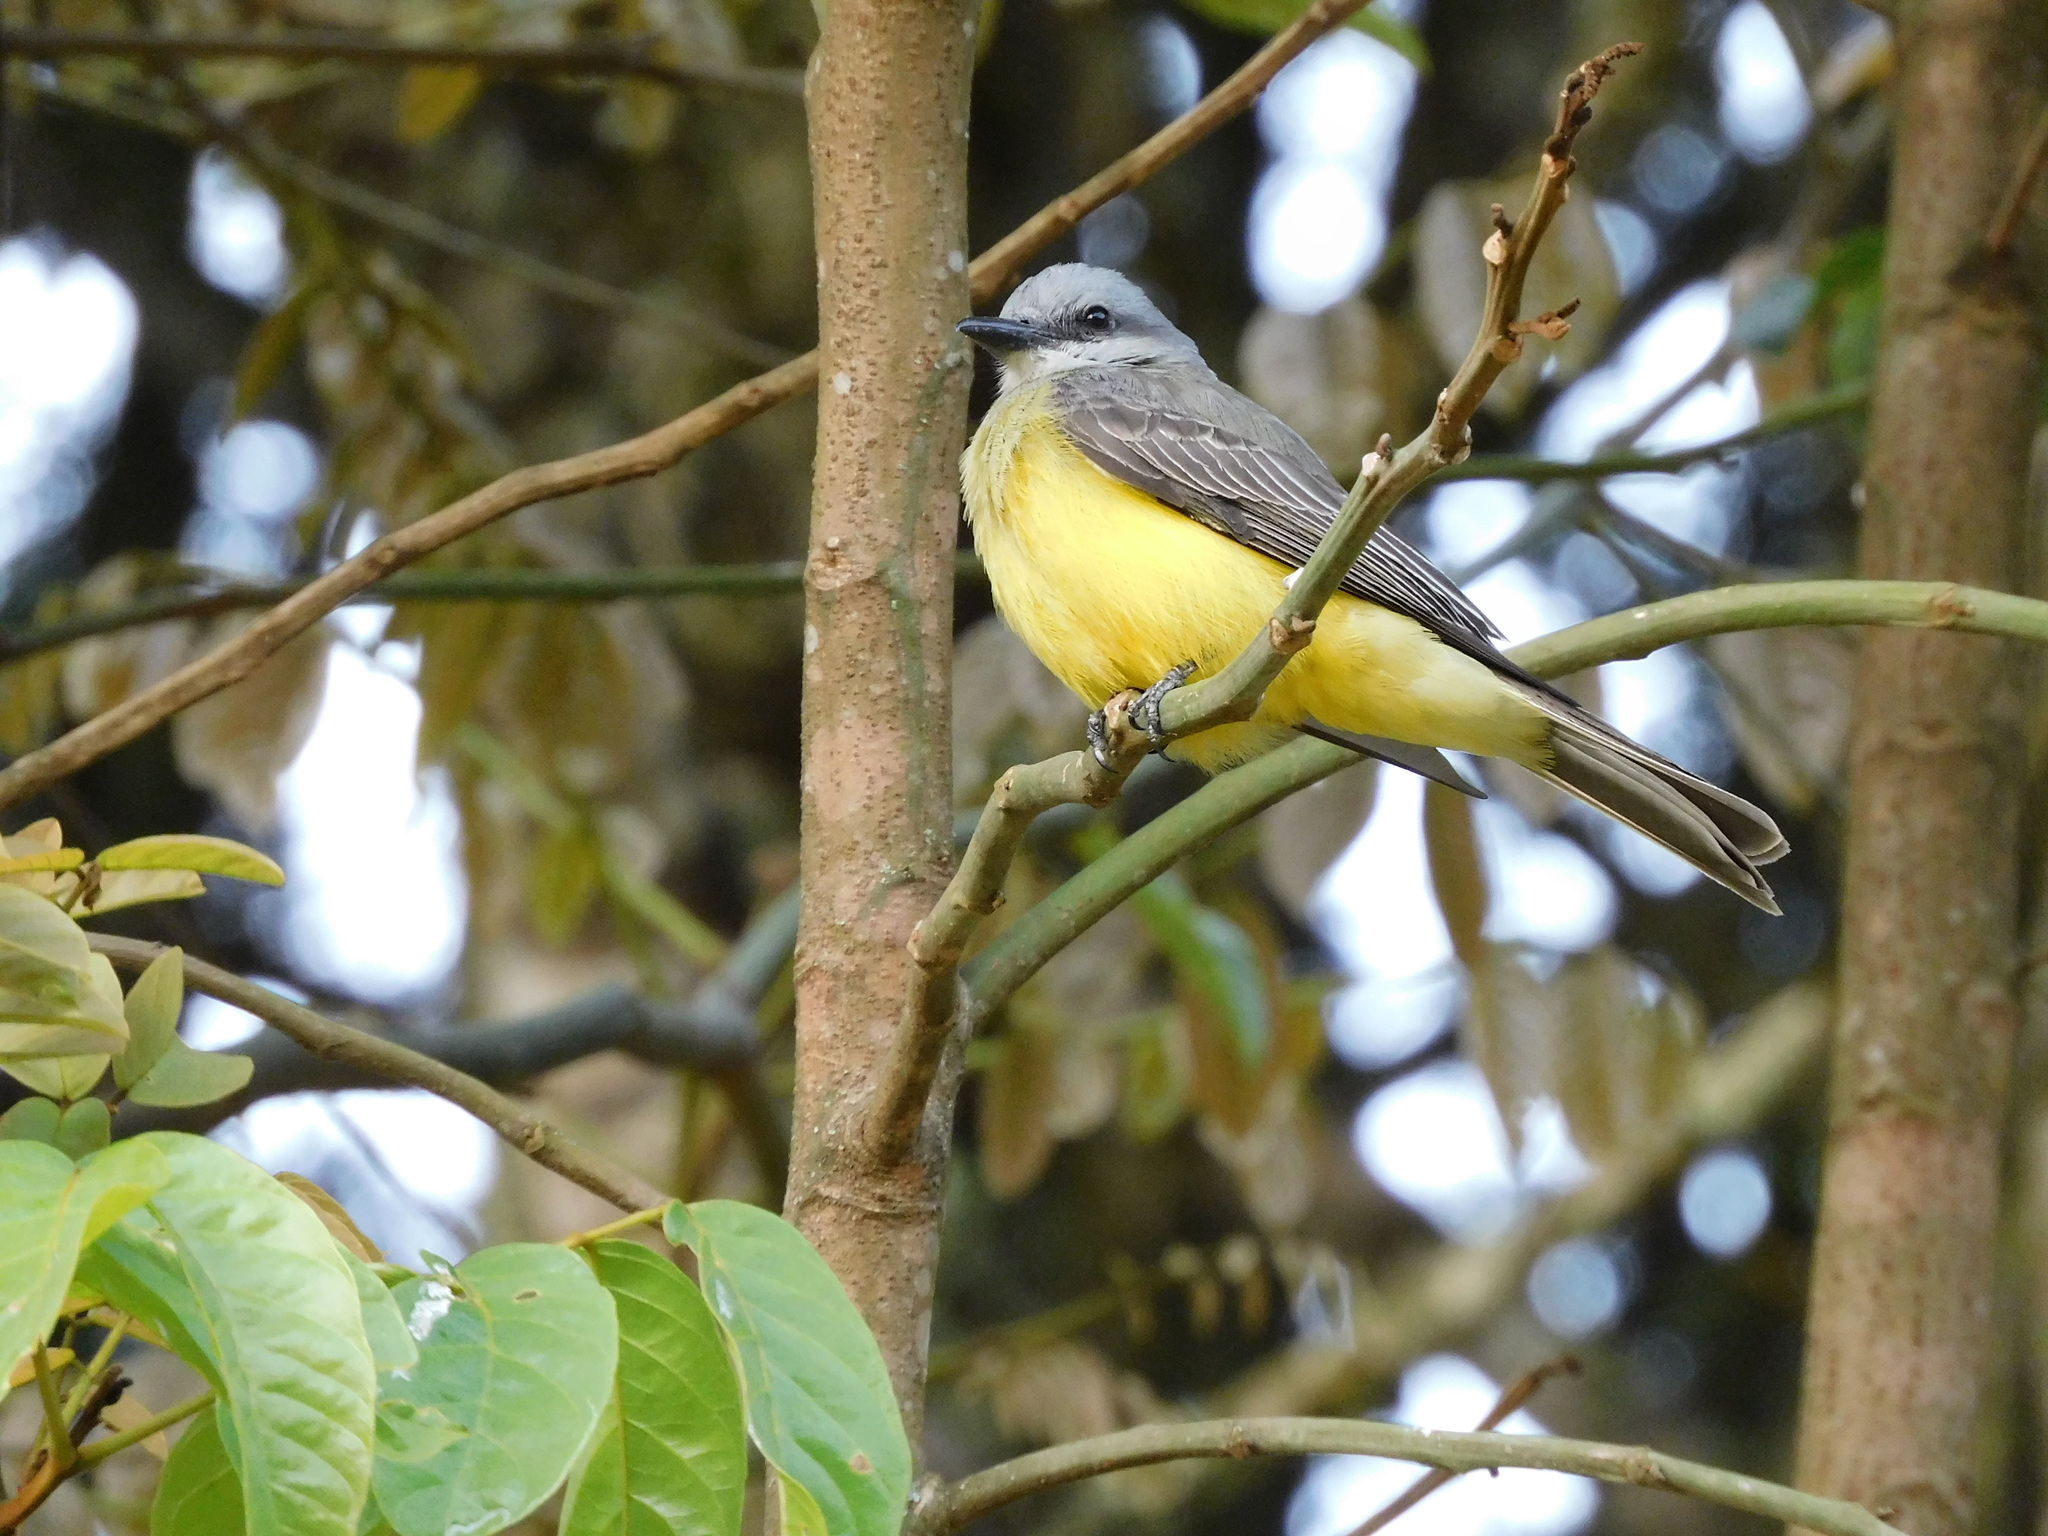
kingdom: Animalia
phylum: Chordata
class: Aves
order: Passeriformes
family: Tyrannidae
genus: Tyrannus
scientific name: Tyrannus melancholicus
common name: Tropical kingbird
